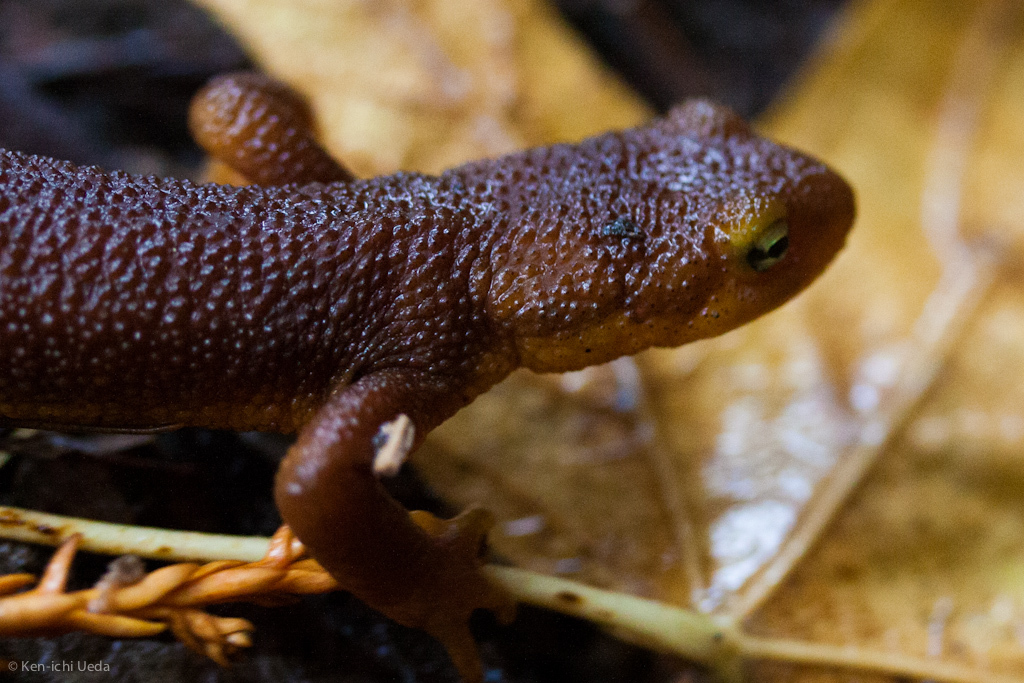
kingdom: Animalia
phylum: Chordata
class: Amphibia
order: Caudata
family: Salamandridae
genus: Taricha
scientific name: Taricha torosa
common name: California newt
